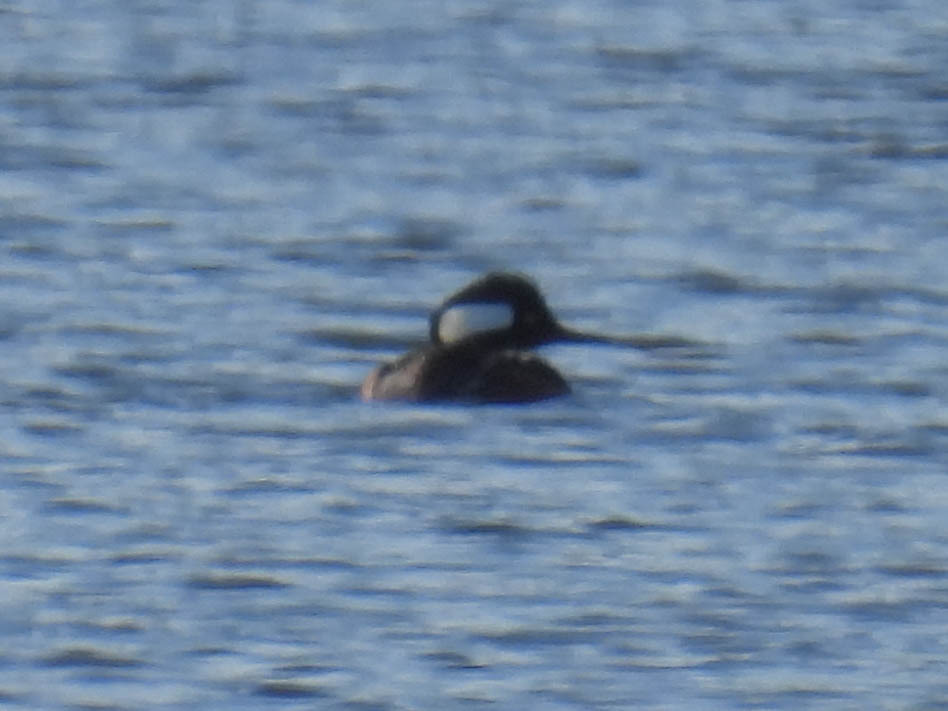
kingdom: Animalia
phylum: Chordata
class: Aves
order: Anseriformes
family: Anatidae
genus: Lophodytes
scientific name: Lophodytes cucullatus
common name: Hooded merganser
